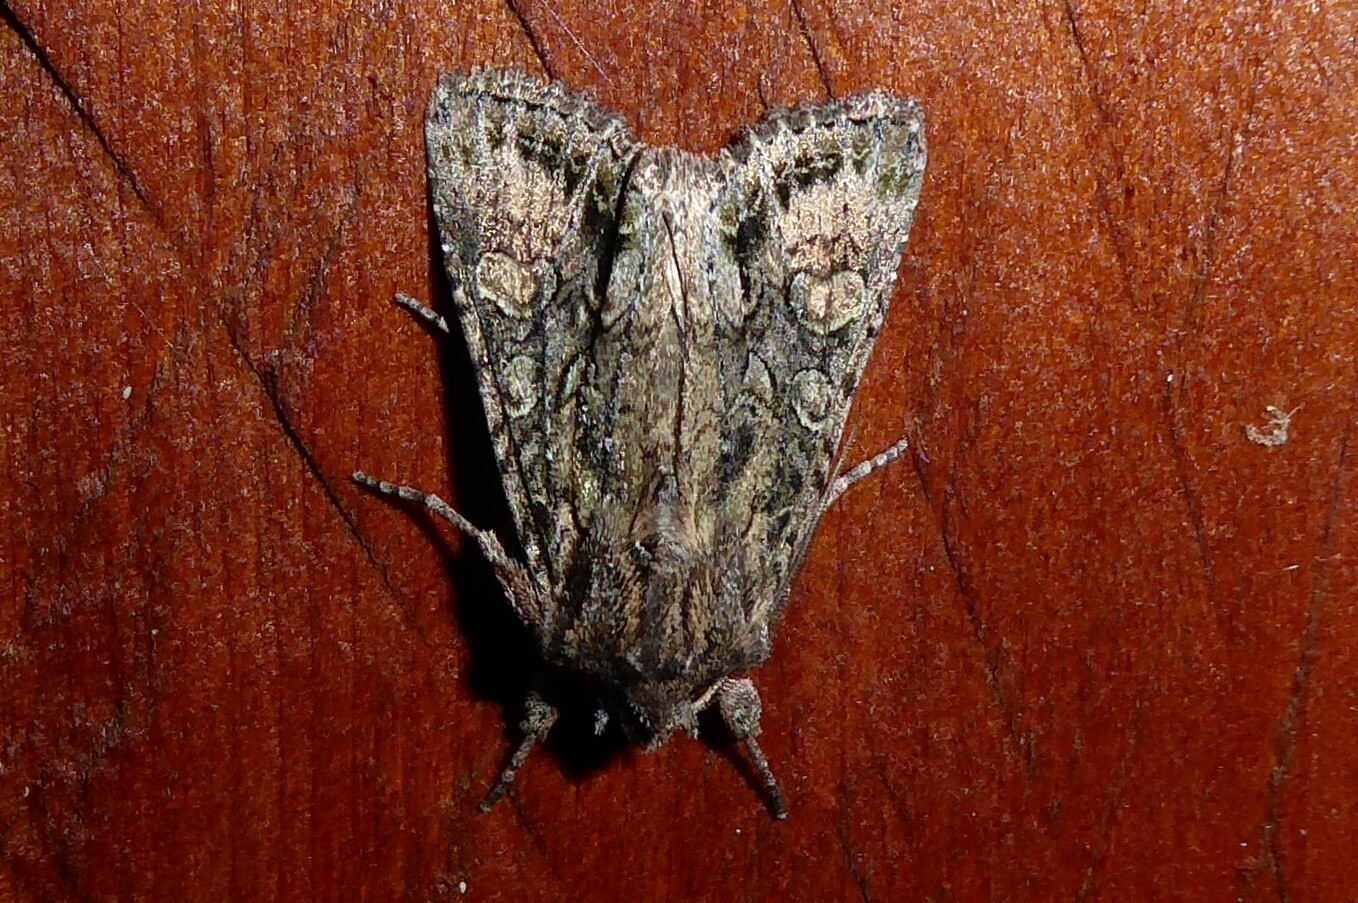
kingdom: Animalia
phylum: Arthropoda
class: Insecta
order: Lepidoptera
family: Noctuidae
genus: Ichneutica
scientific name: Ichneutica mutans
